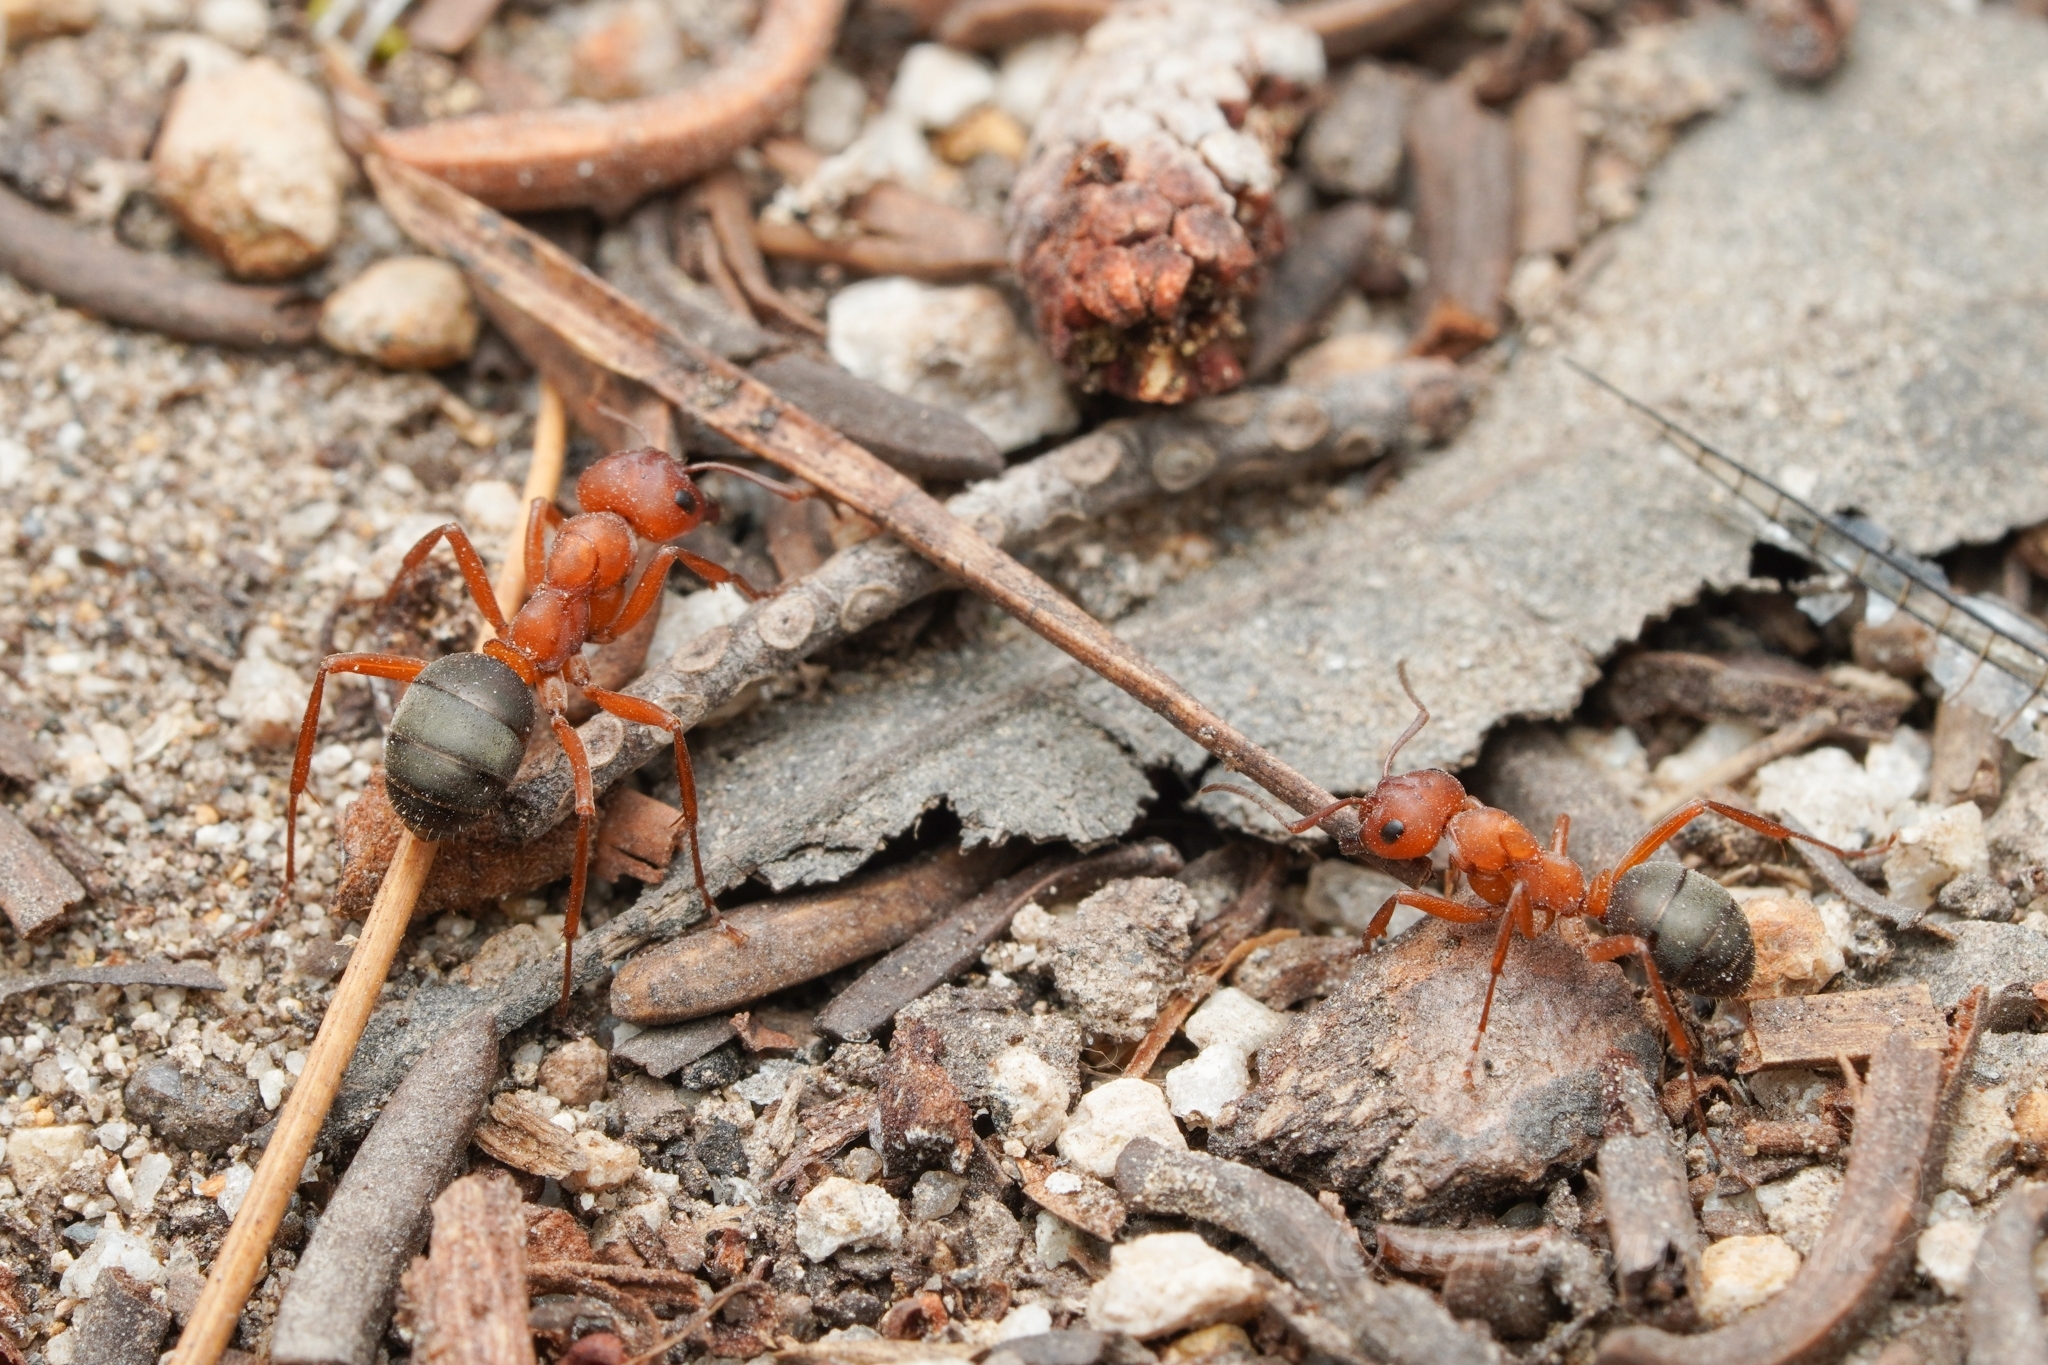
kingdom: Animalia
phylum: Arthropoda
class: Insecta
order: Hymenoptera
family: Formicidae
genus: Formica
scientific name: Formica aserva
